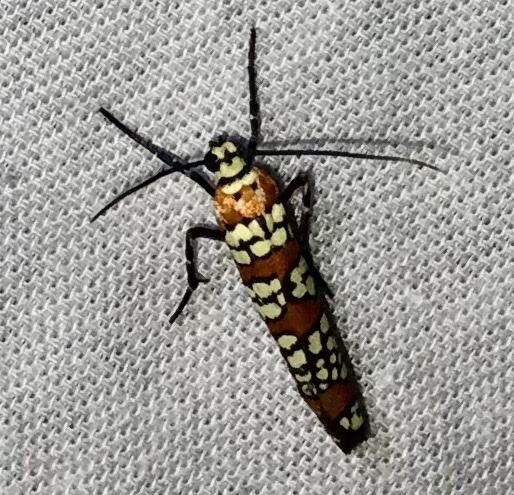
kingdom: Animalia
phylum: Arthropoda
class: Insecta
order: Lepidoptera
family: Attevidae
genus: Atteva
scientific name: Atteva punctella
